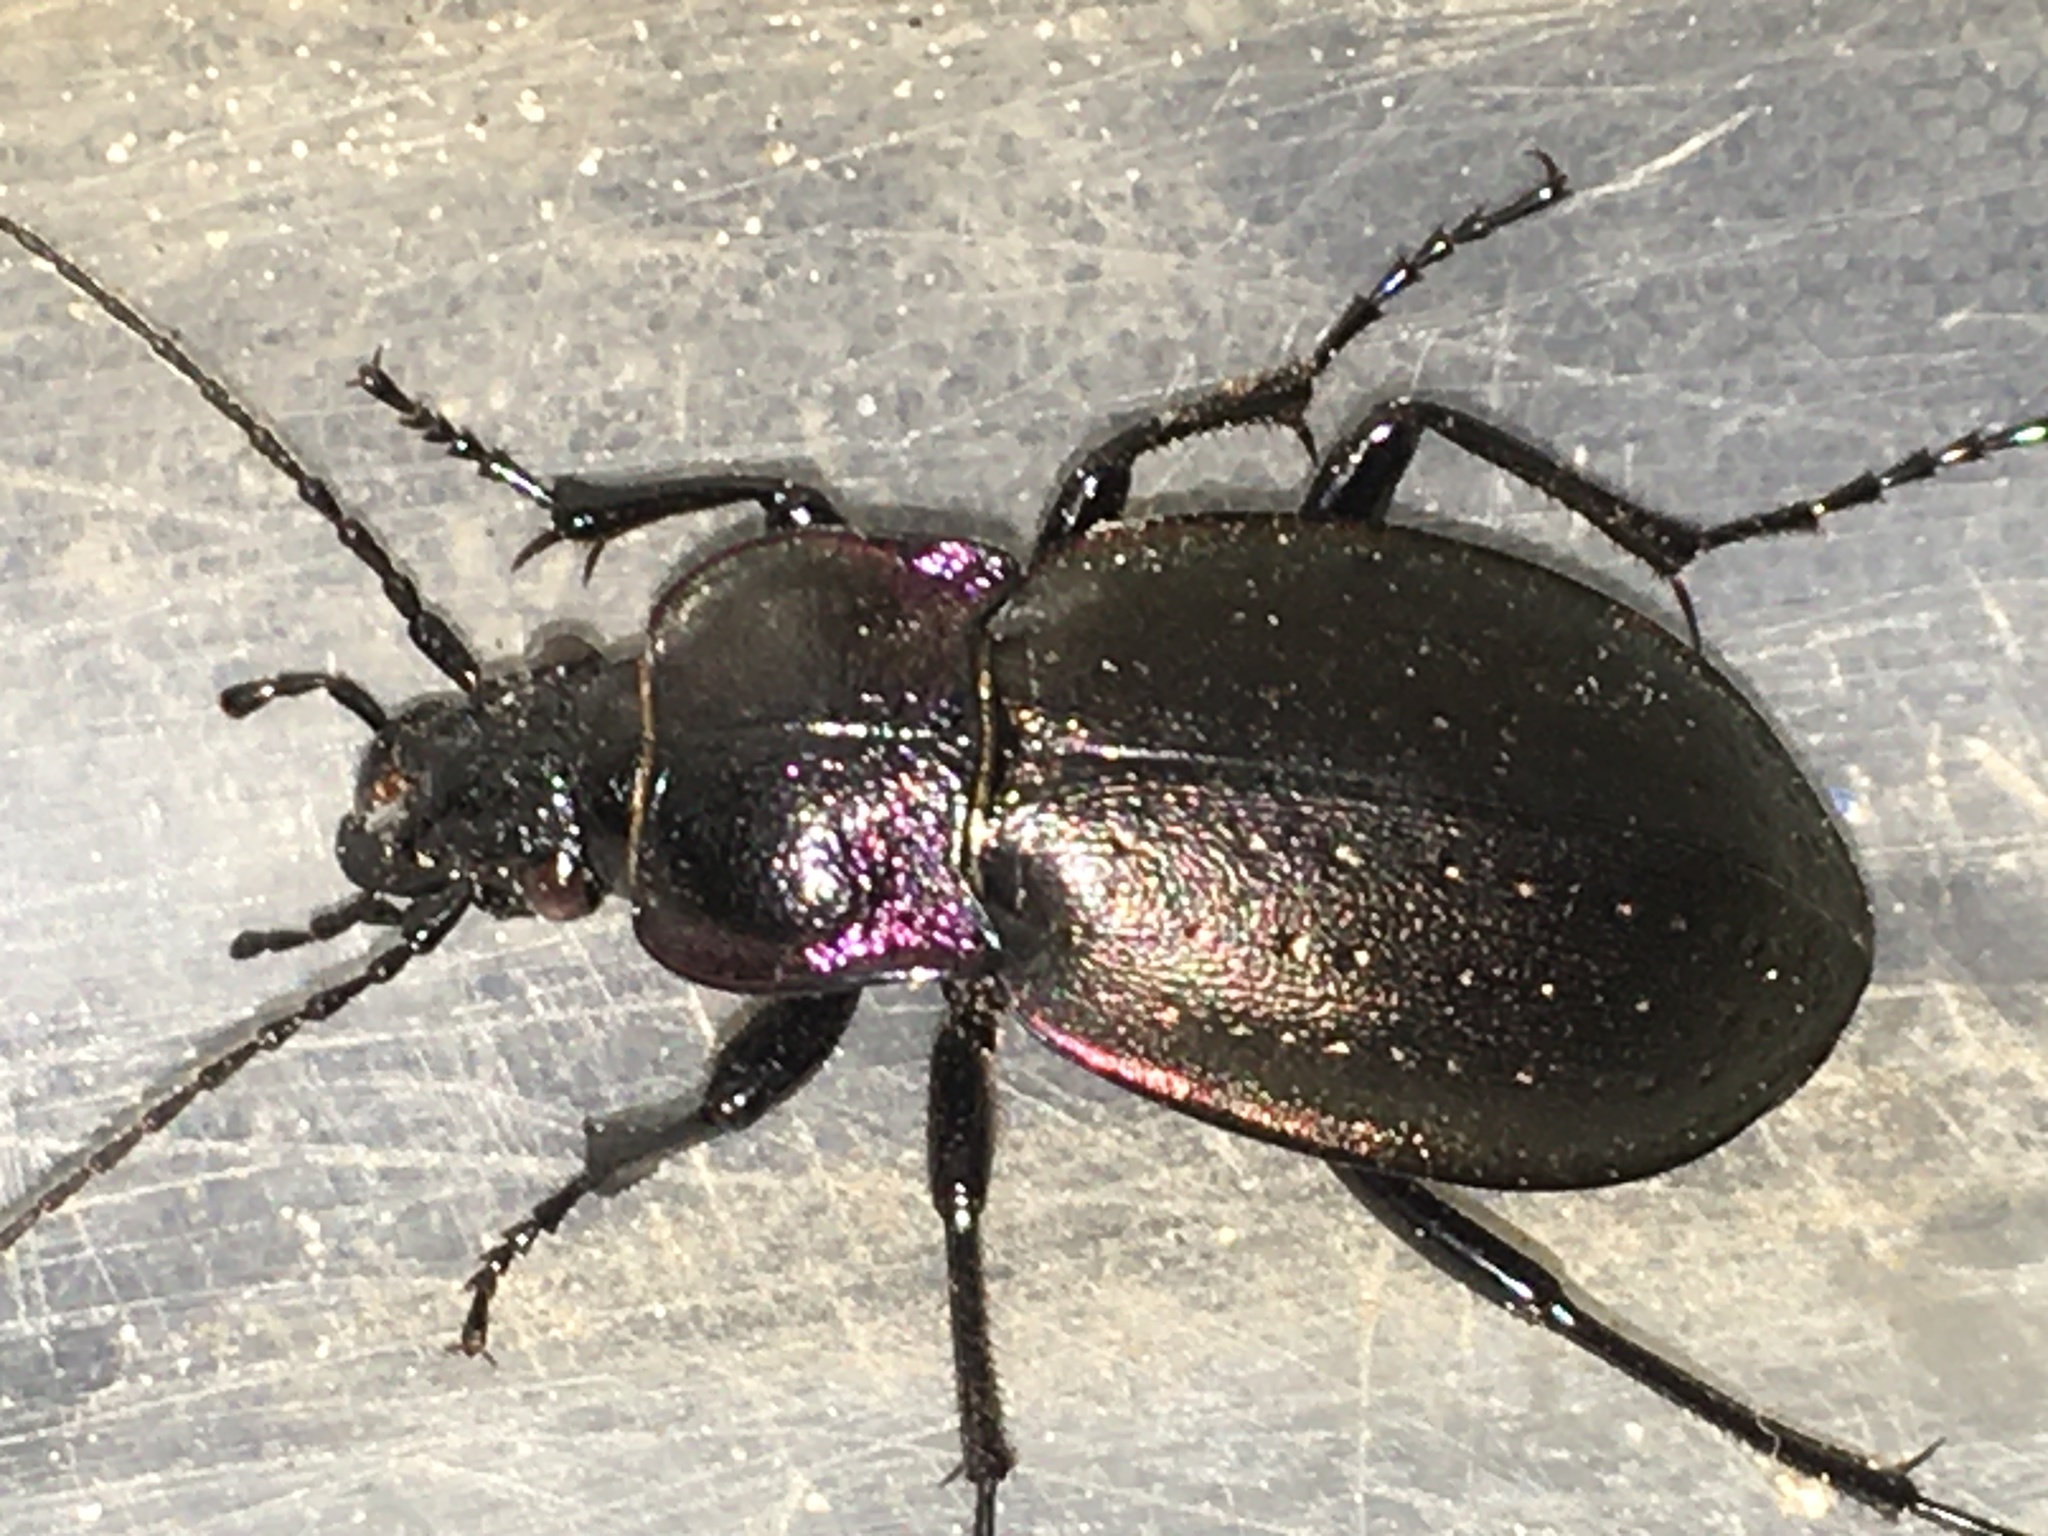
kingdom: Animalia
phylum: Arthropoda
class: Insecta
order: Coleoptera
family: Carabidae
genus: Carabus
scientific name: Carabus nemoralis
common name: European ground beetle
